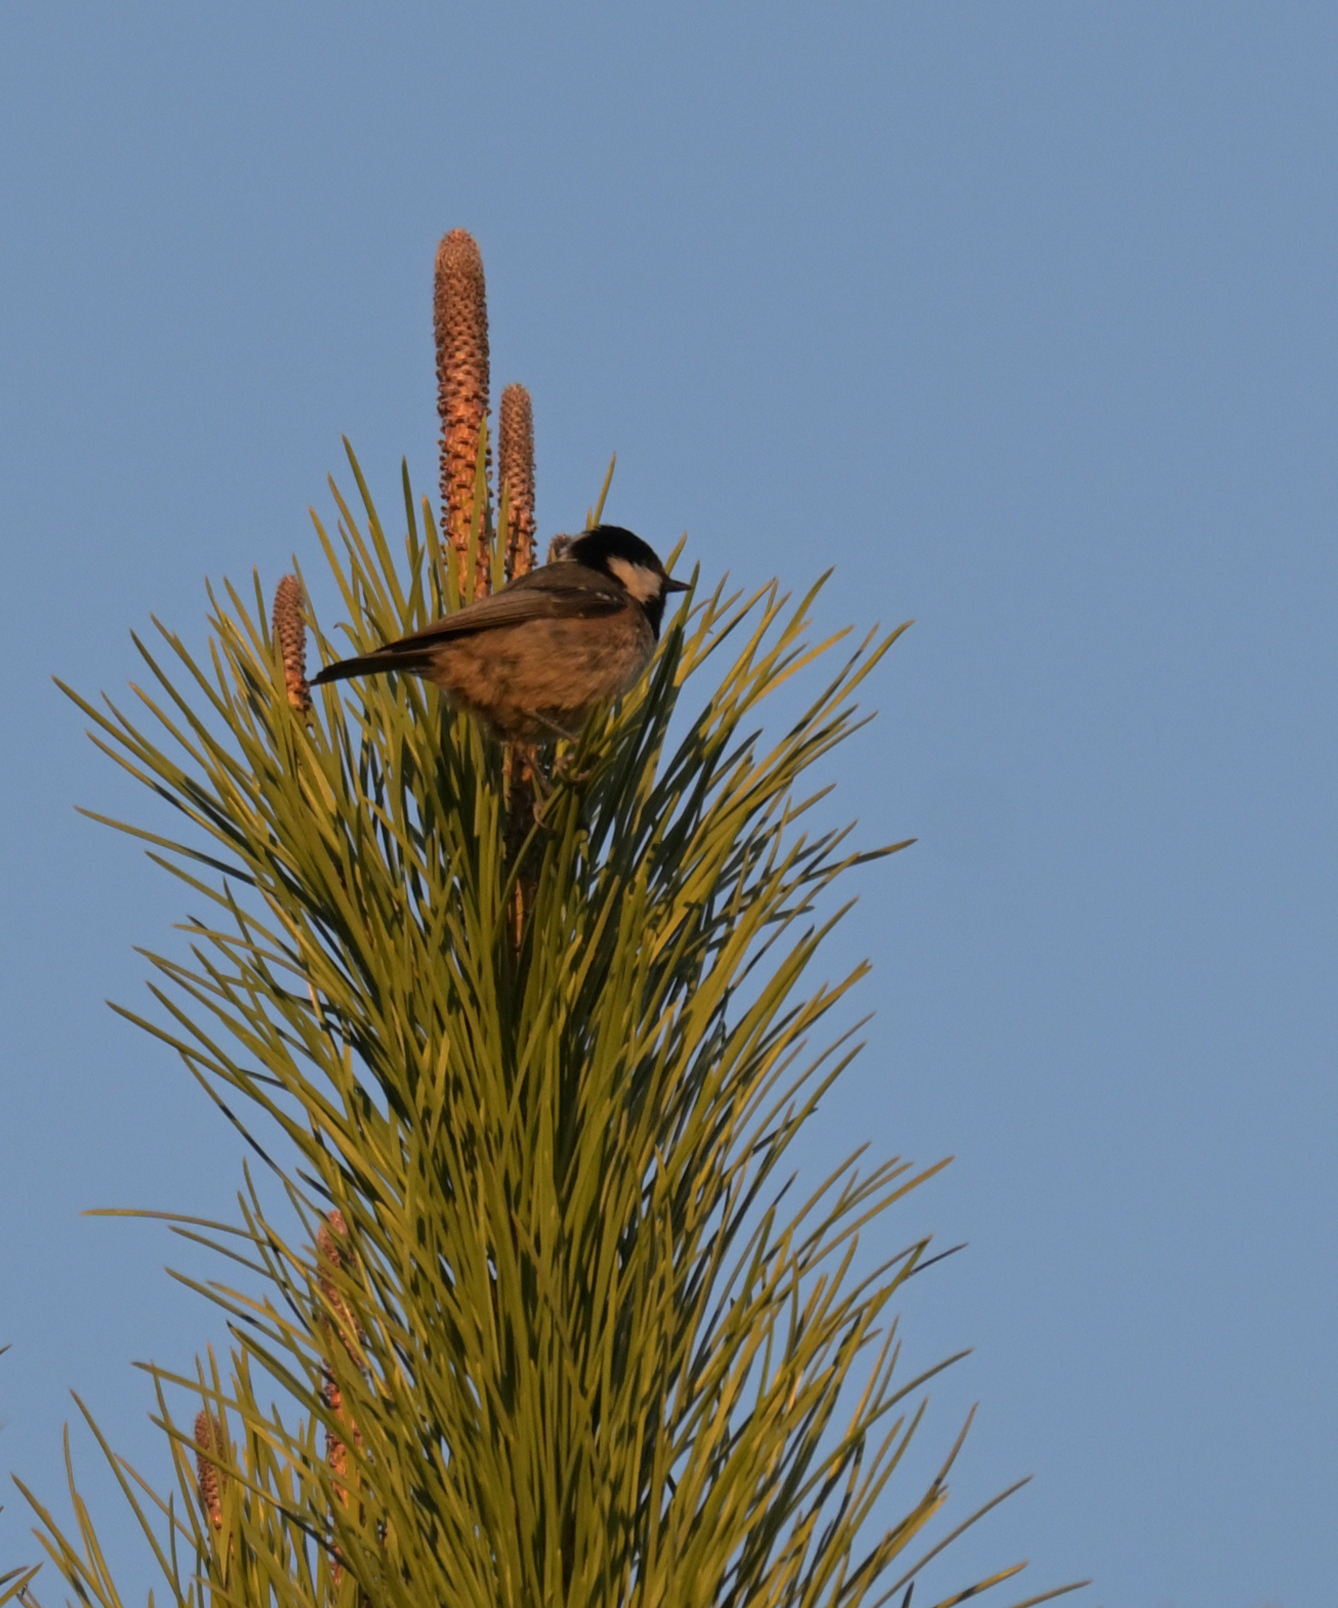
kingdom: Animalia
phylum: Chordata
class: Aves
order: Passeriformes
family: Paridae
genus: Periparus
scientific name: Periparus ater
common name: Coal tit
